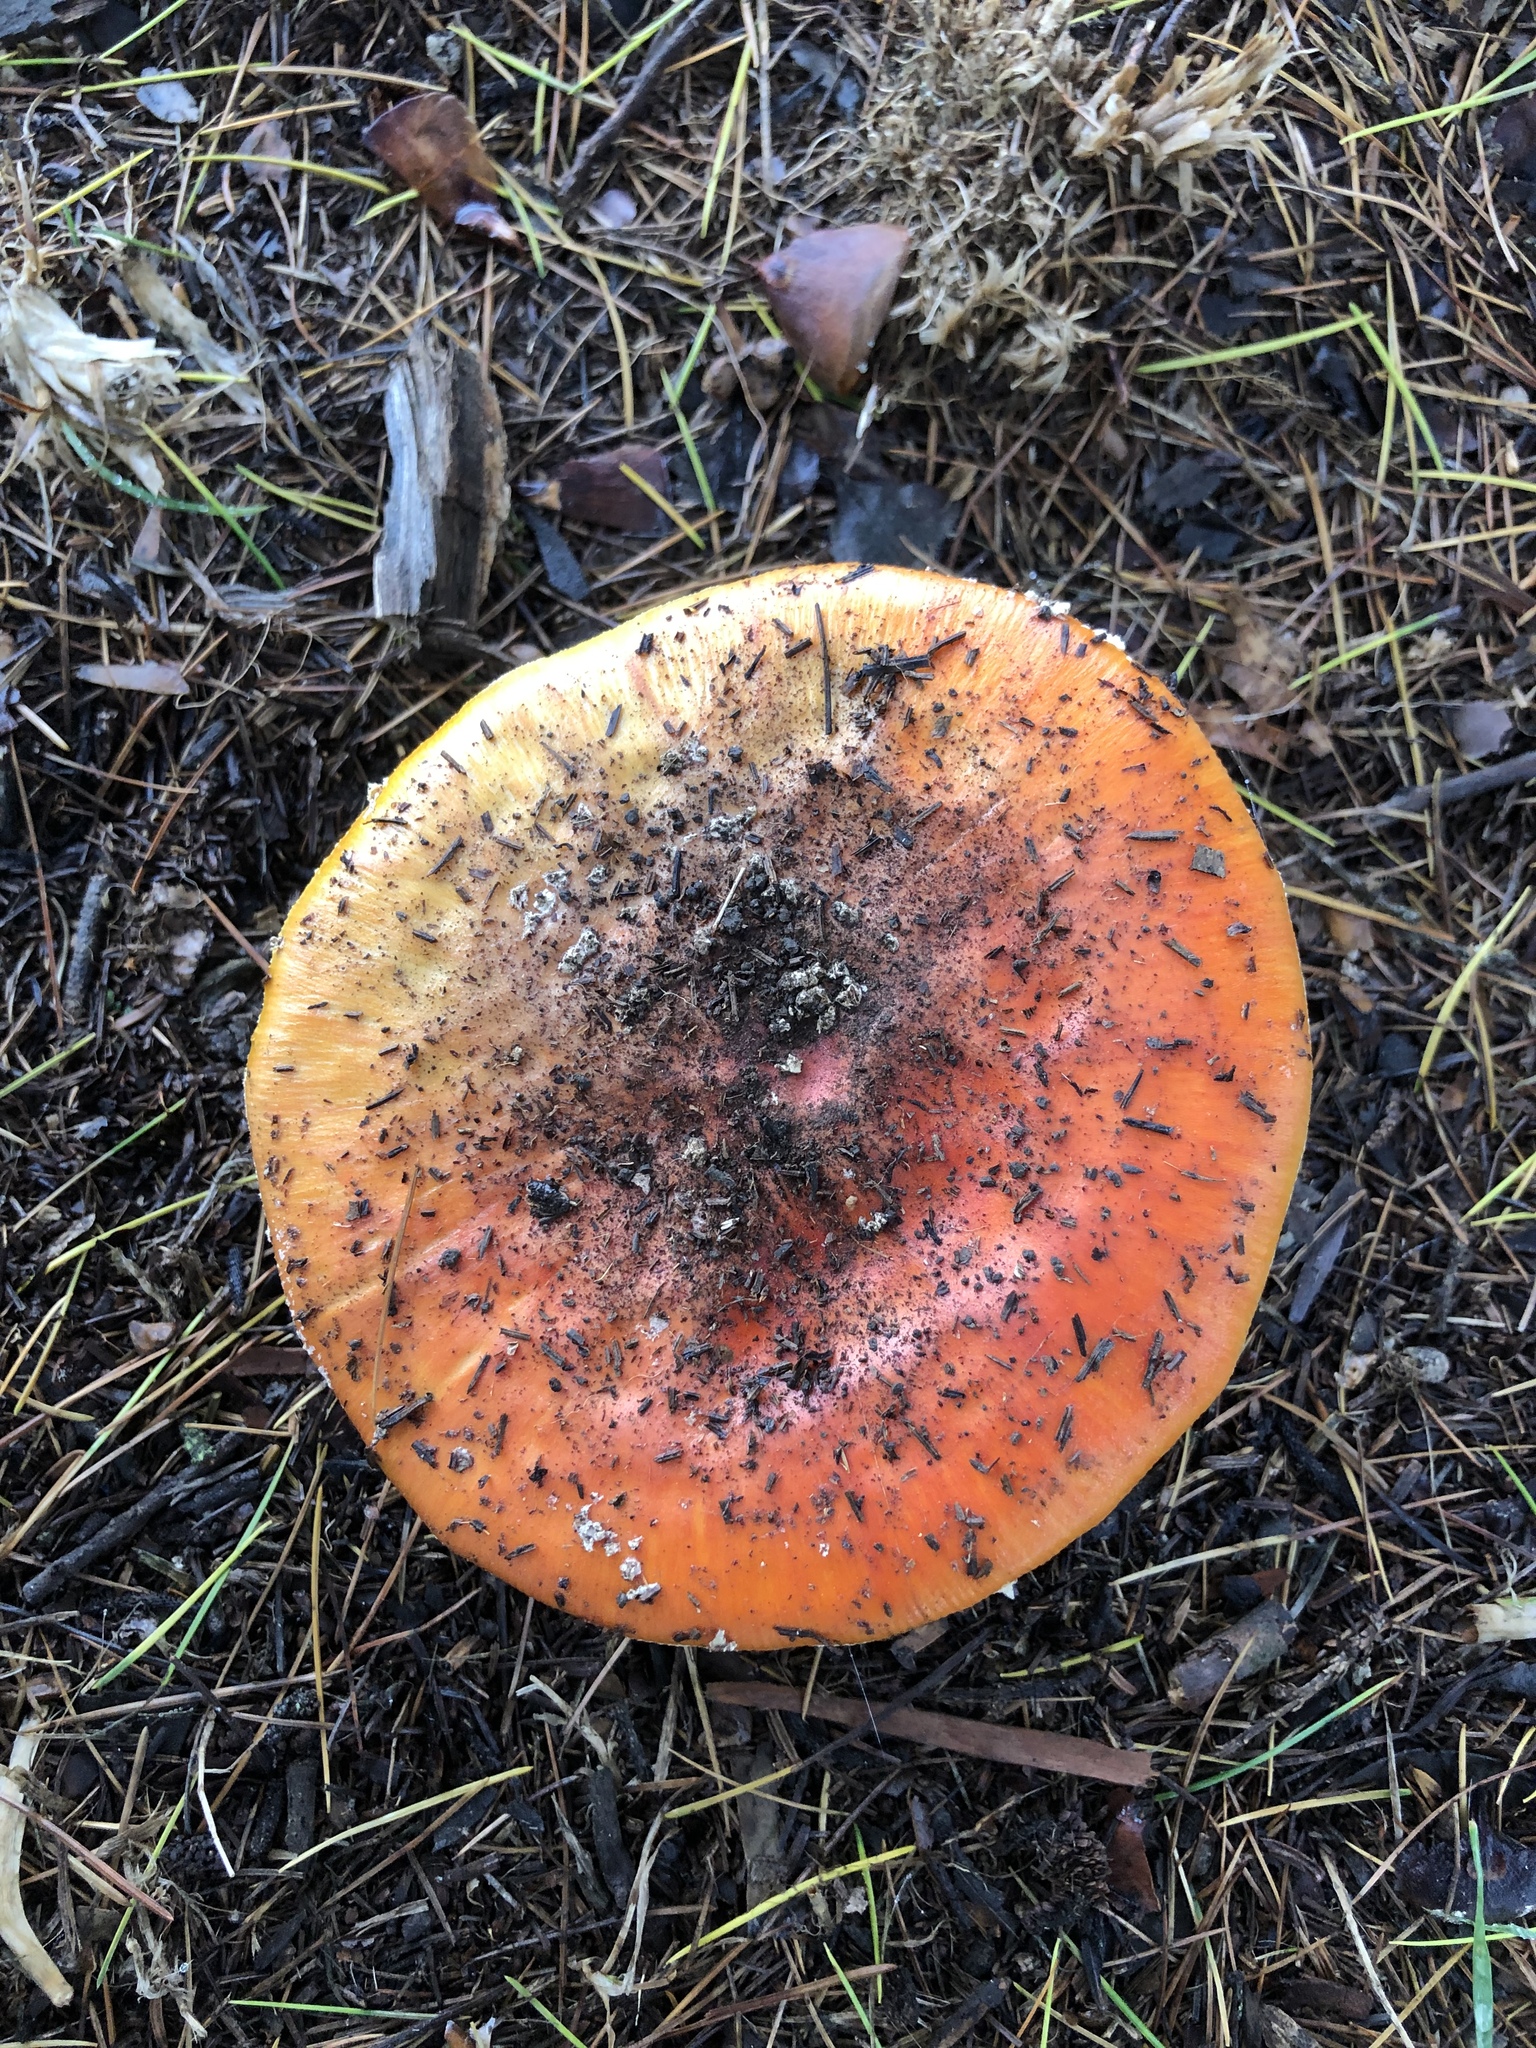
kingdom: Fungi
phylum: Basidiomycota
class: Agaricomycetes
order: Agaricales
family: Amanitaceae
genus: Amanita
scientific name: Amanita muscaria
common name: Fly agaric
